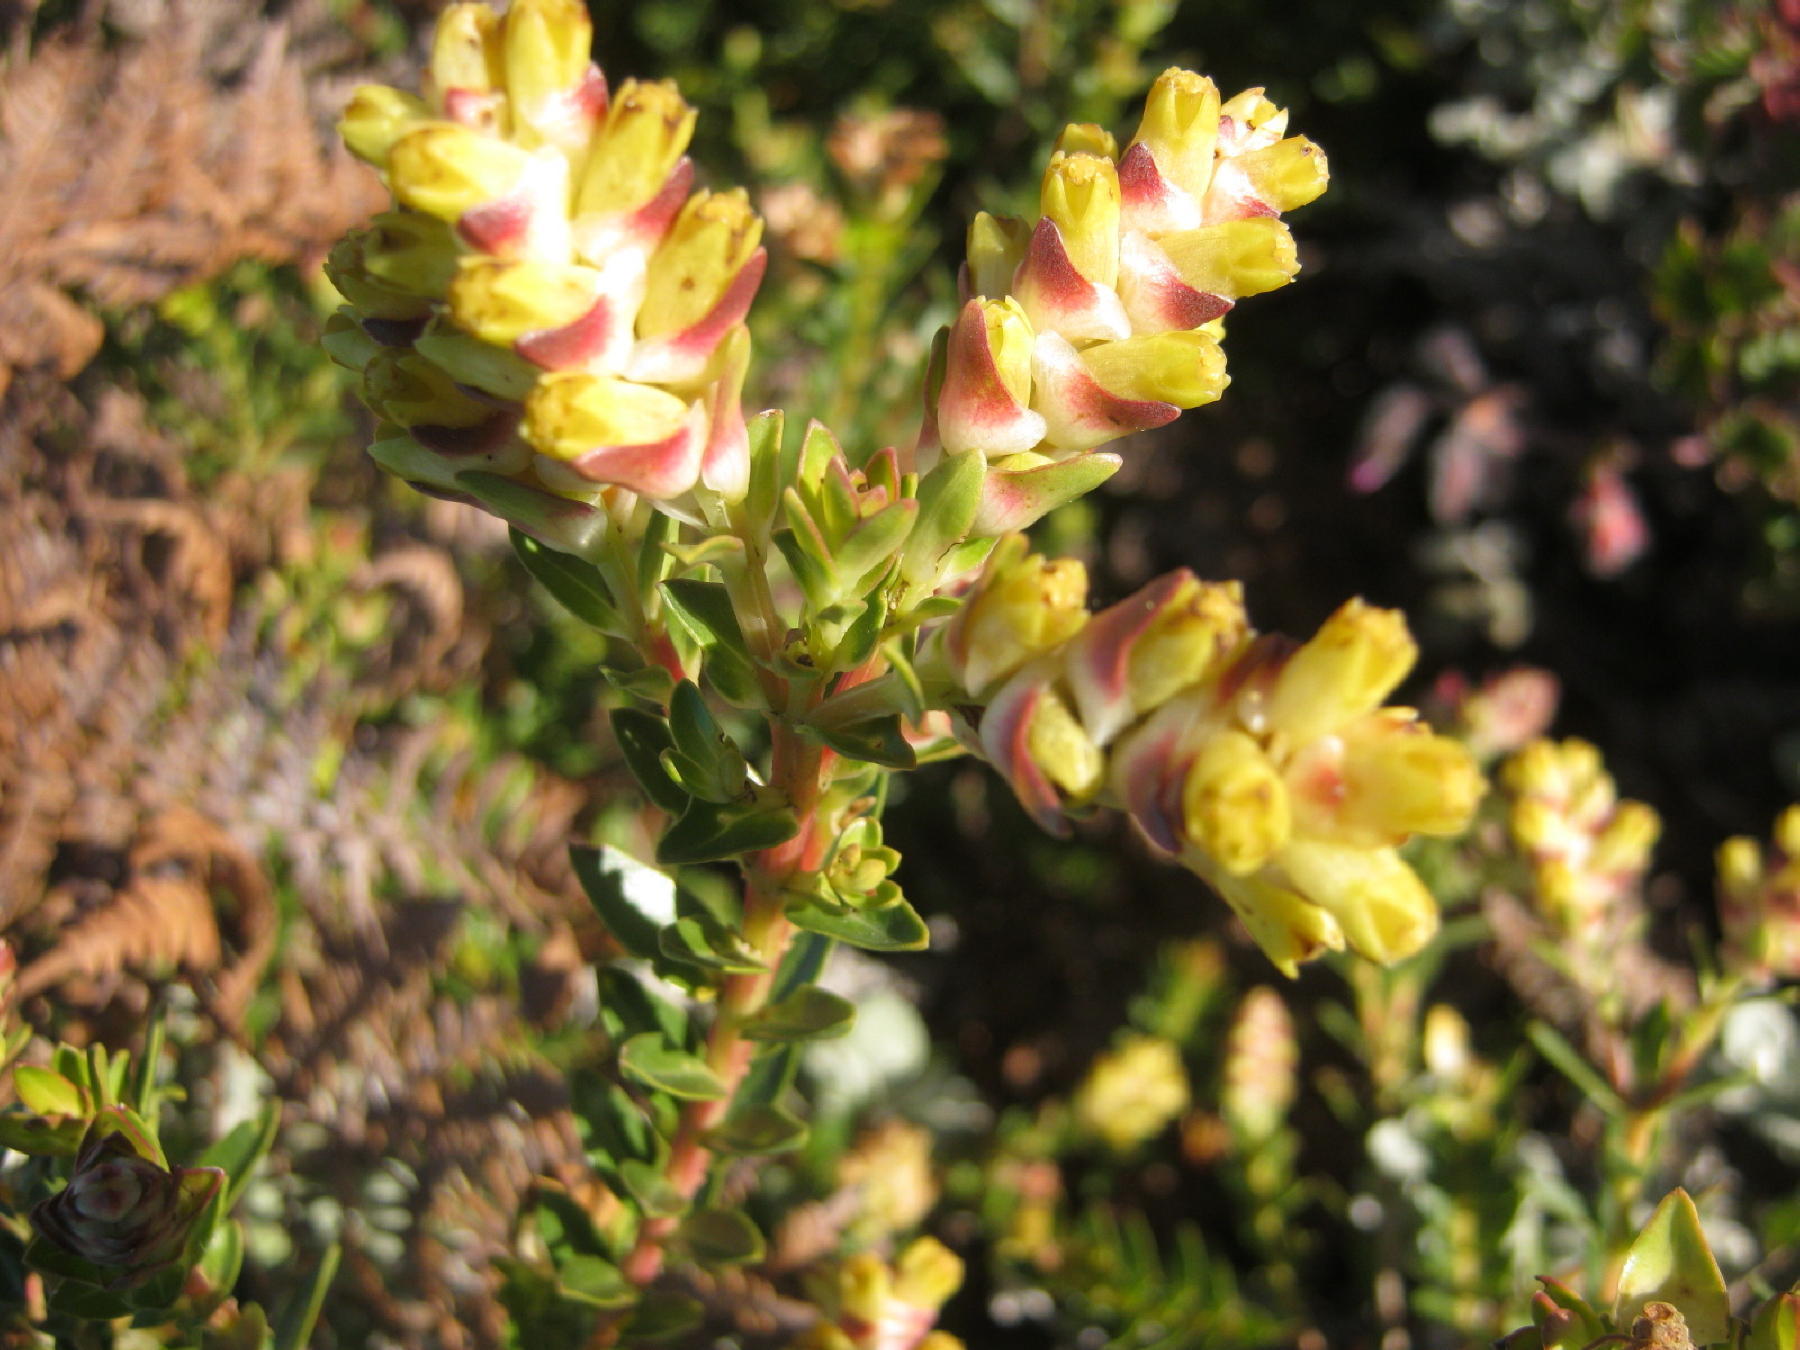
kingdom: Plantae
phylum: Tracheophyta
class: Magnoliopsida
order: Myrtales
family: Penaeaceae
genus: Penaea
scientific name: Penaea cneorum
